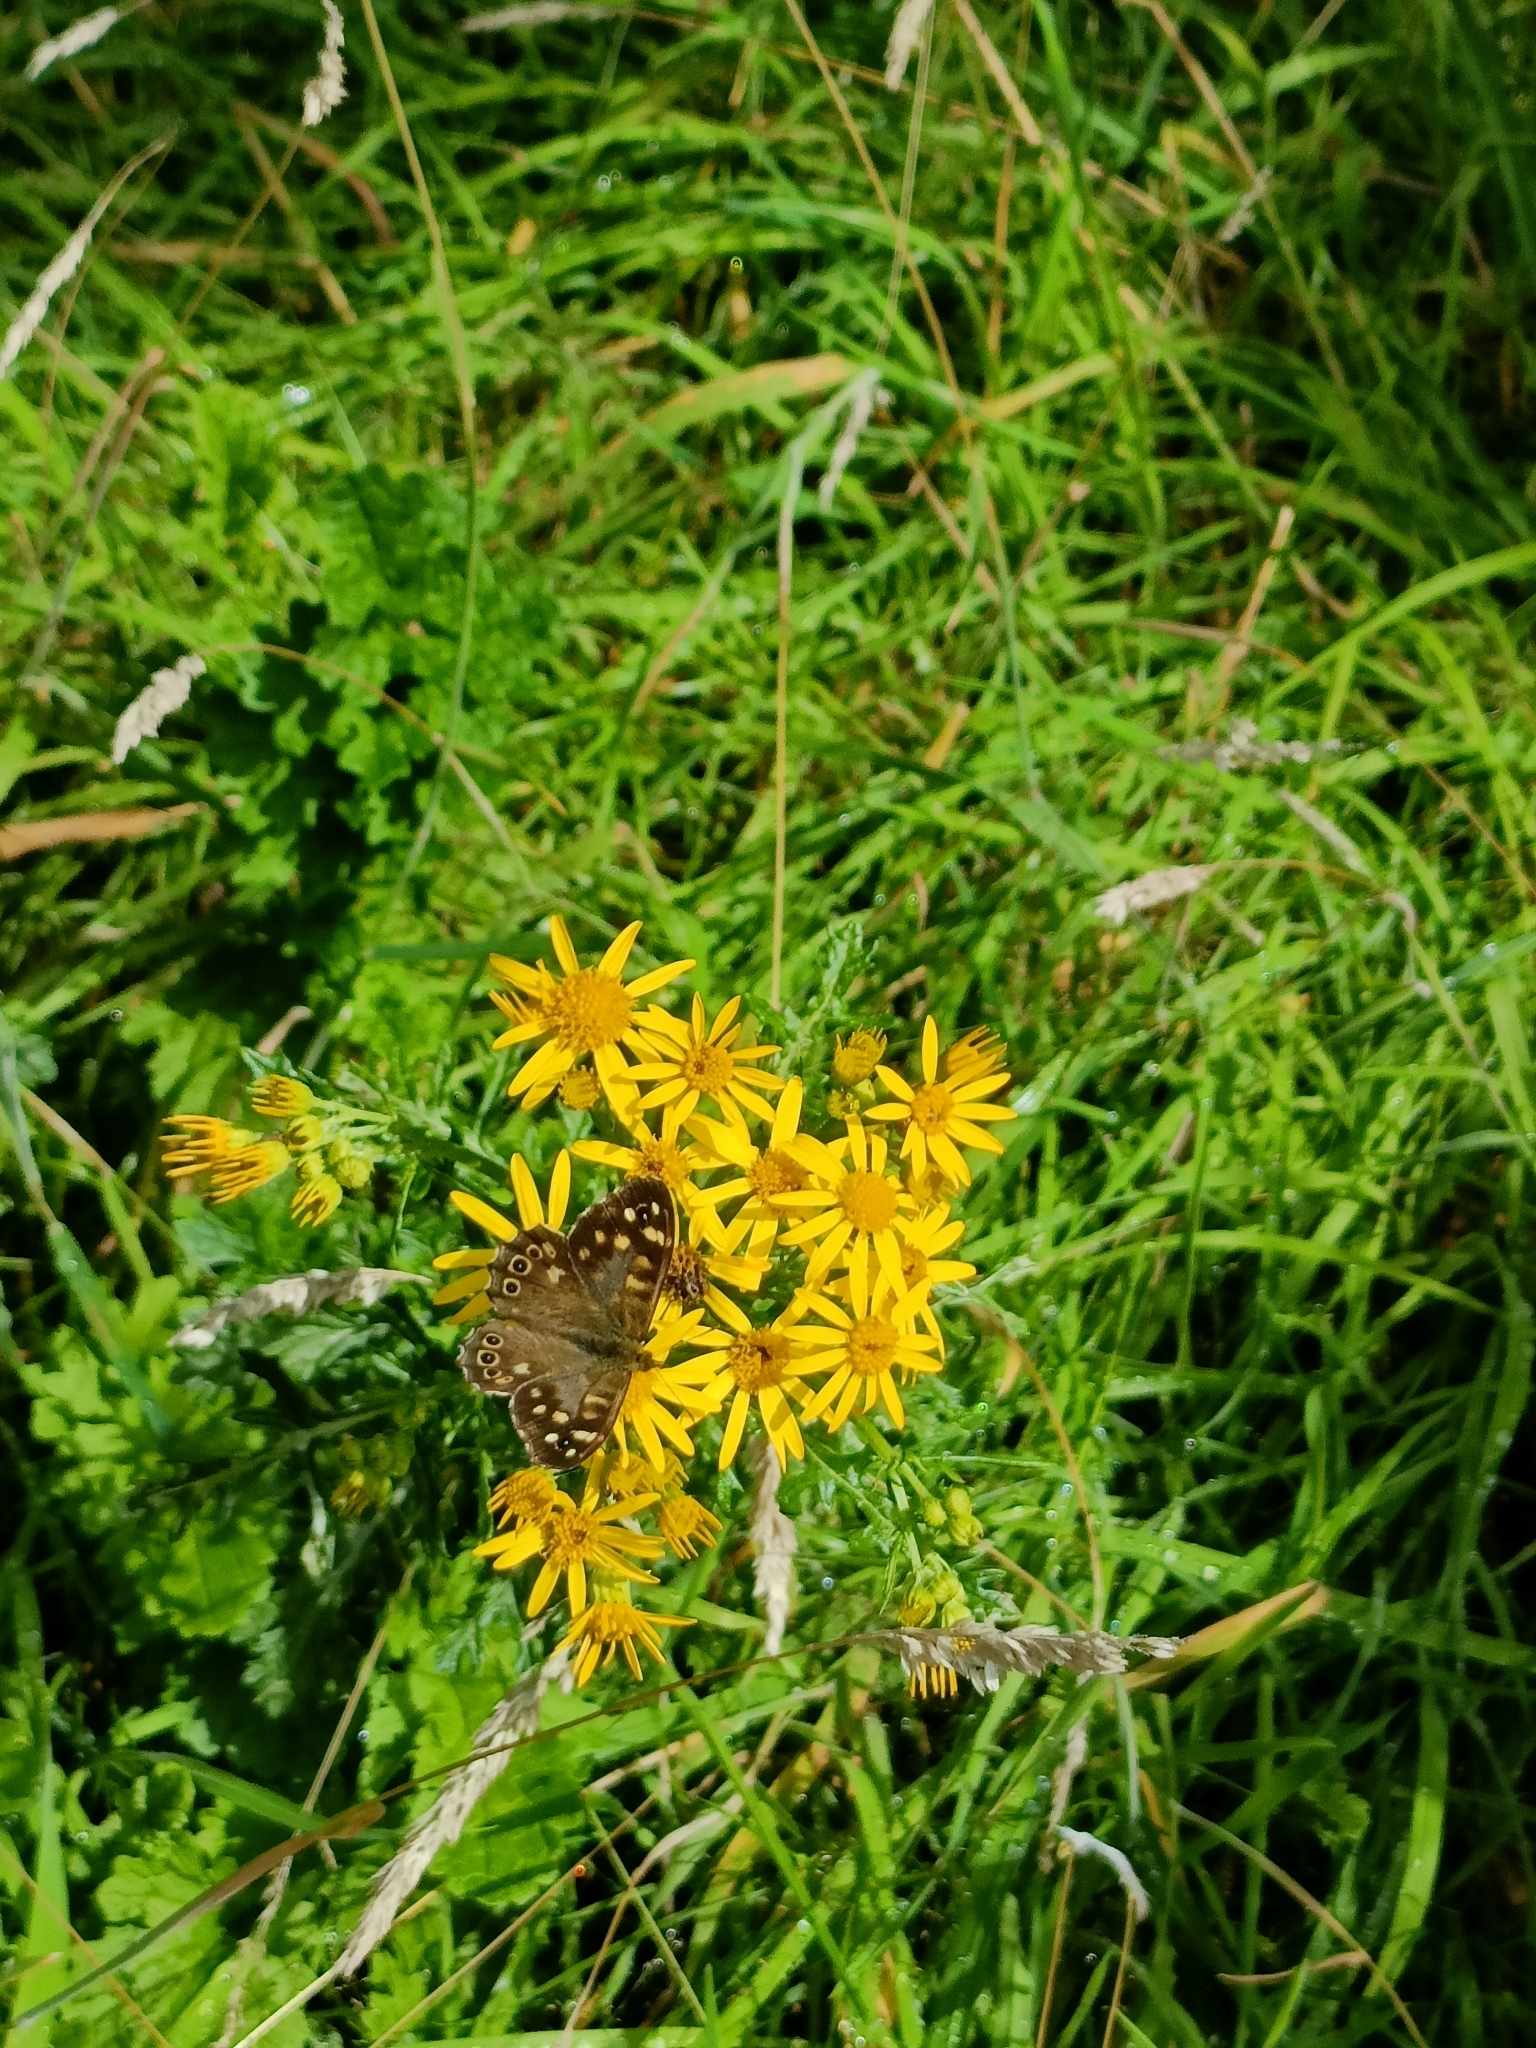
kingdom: Animalia
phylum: Arthropoda
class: Insecta
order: Lepidoptera
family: Nymphalidae
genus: Pararge
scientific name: Pararge aegeria
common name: Speckled wood
